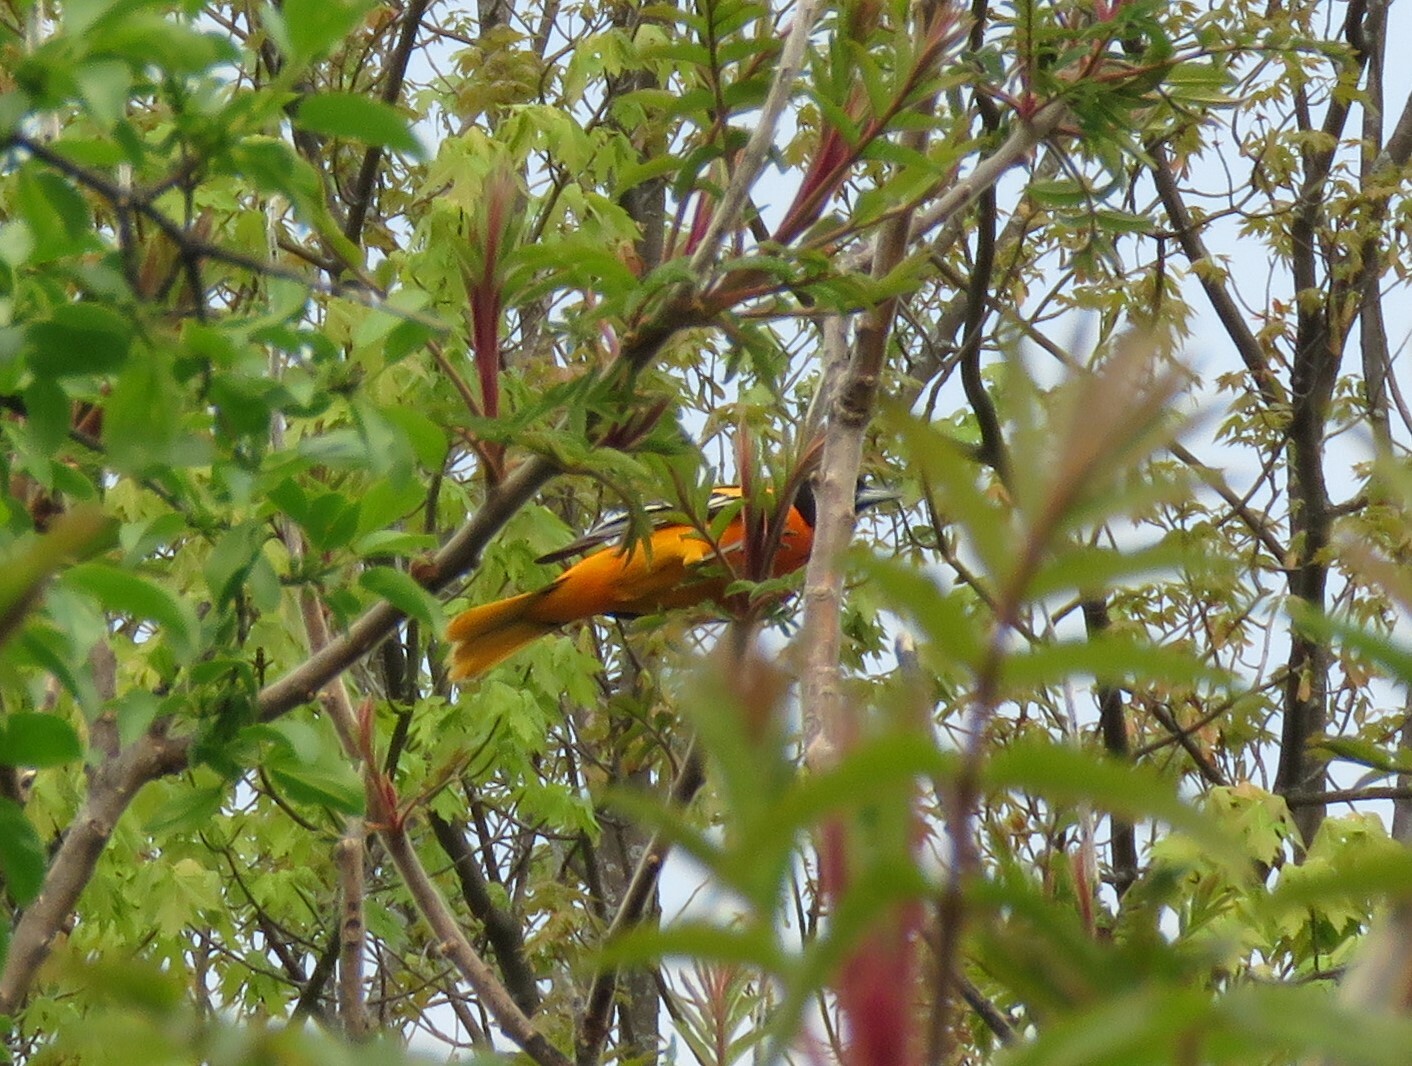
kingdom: Animalia
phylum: Chordata
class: Aves
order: Passeriformes
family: Icteridae
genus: Icterus
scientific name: Icterus galbula
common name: Baltimore oriole
